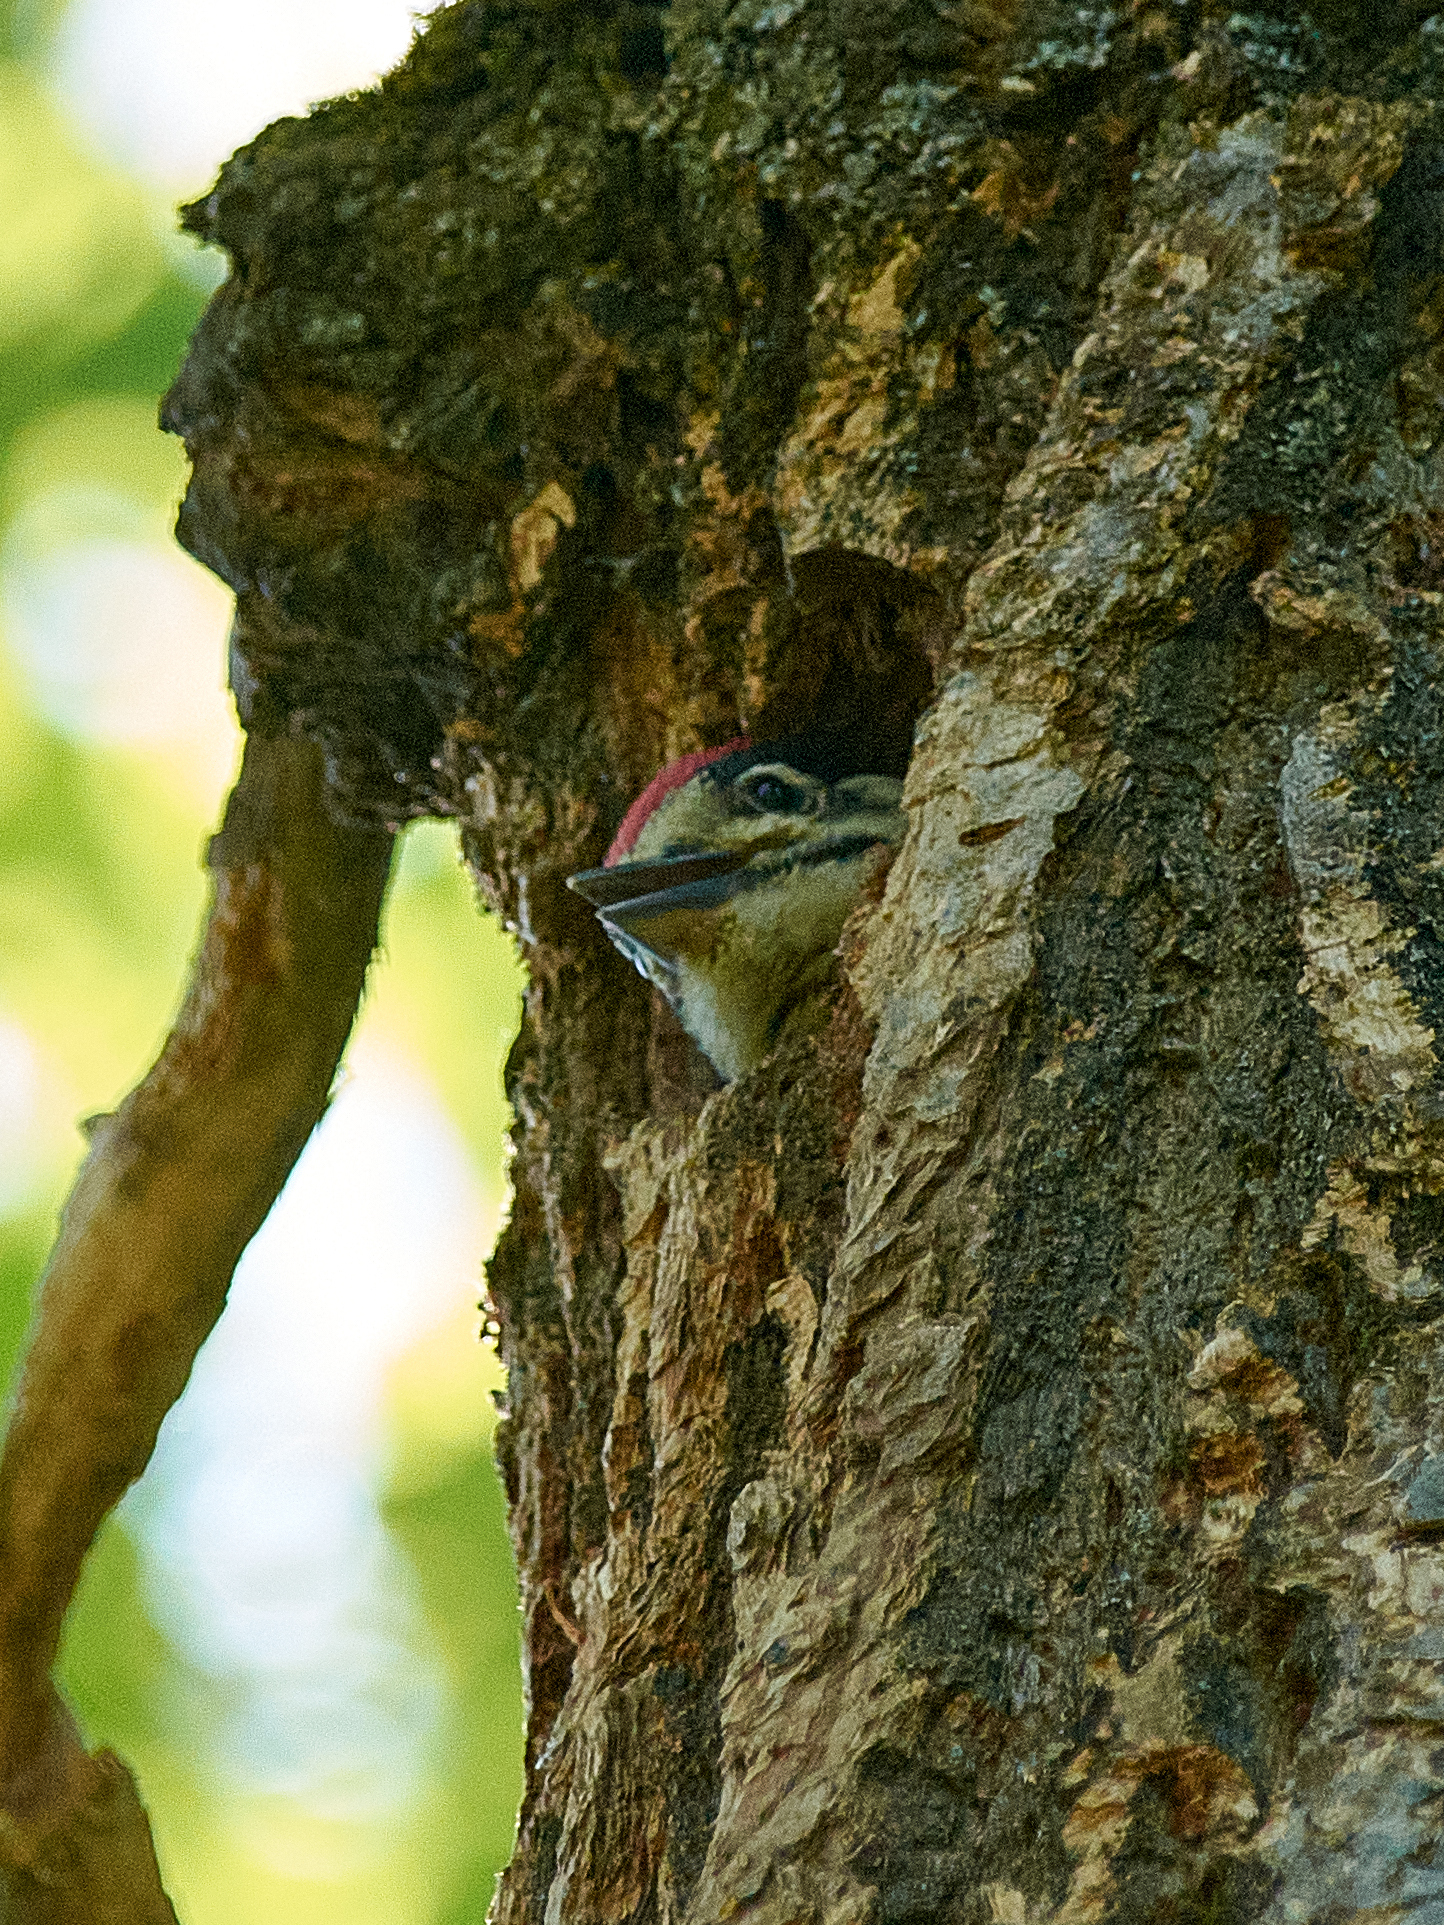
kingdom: Animalia
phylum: Chordata
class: Aves
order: Piciformes
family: Picidae
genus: Dendrocopos
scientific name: Dendrocopos major
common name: Great spotted woodpecker
